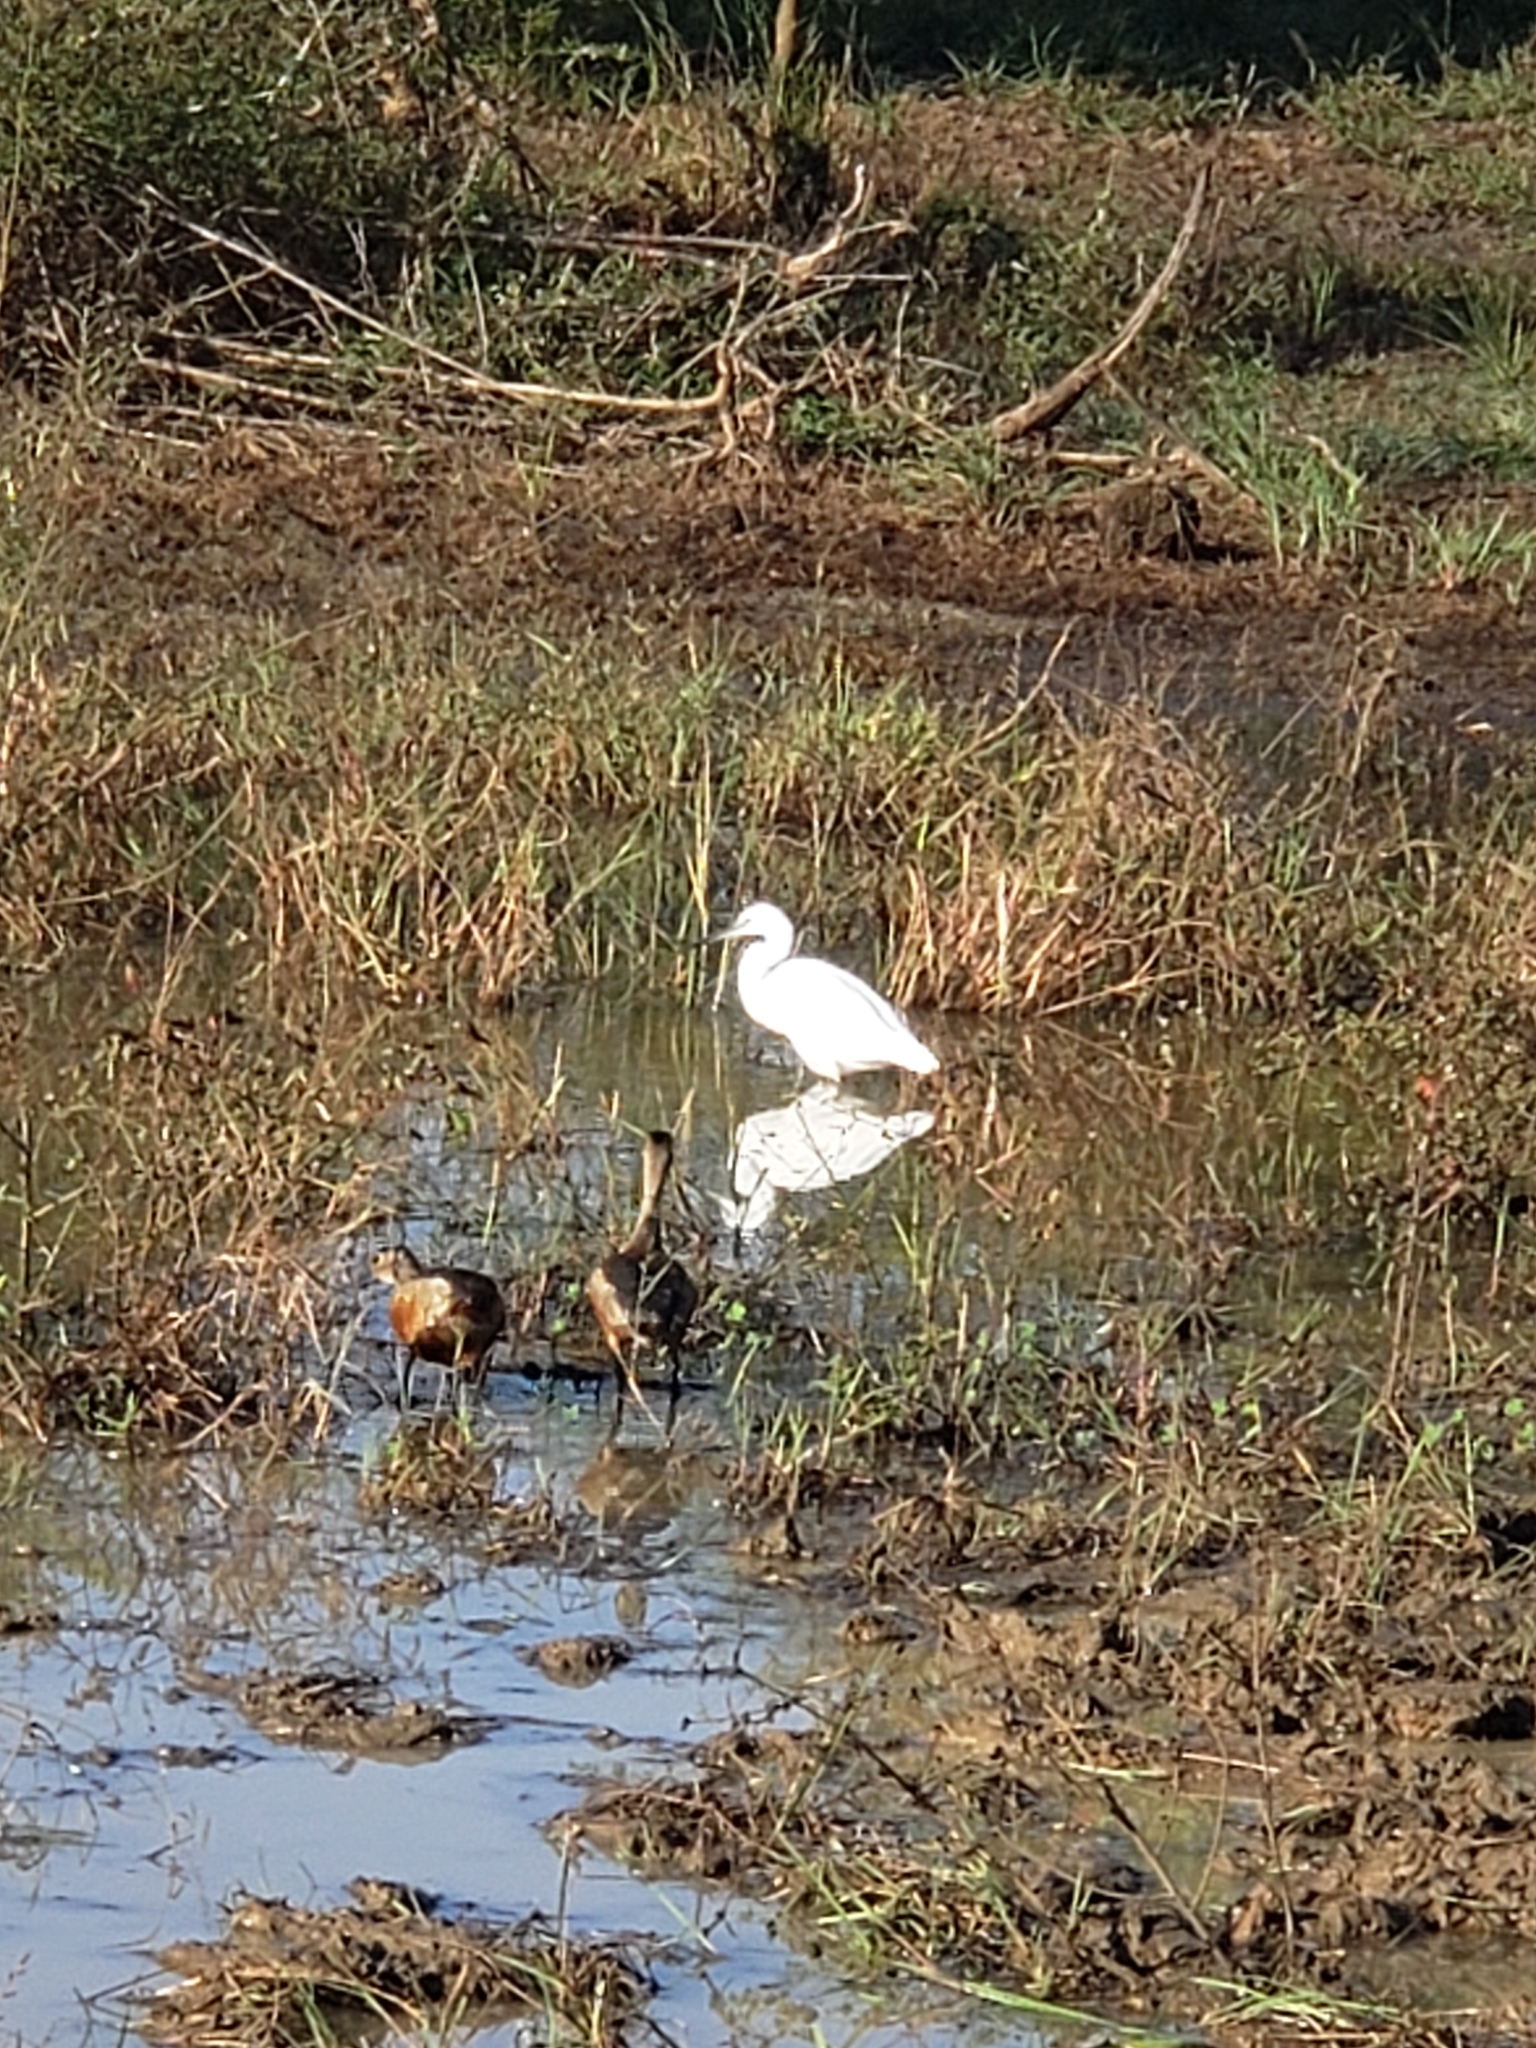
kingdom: Animalia
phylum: Chordata
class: Aves
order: Anseriformes
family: Anatidae
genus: Dendrocygna
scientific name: Dendrocygna javanica
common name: Lesser whistling-duck
